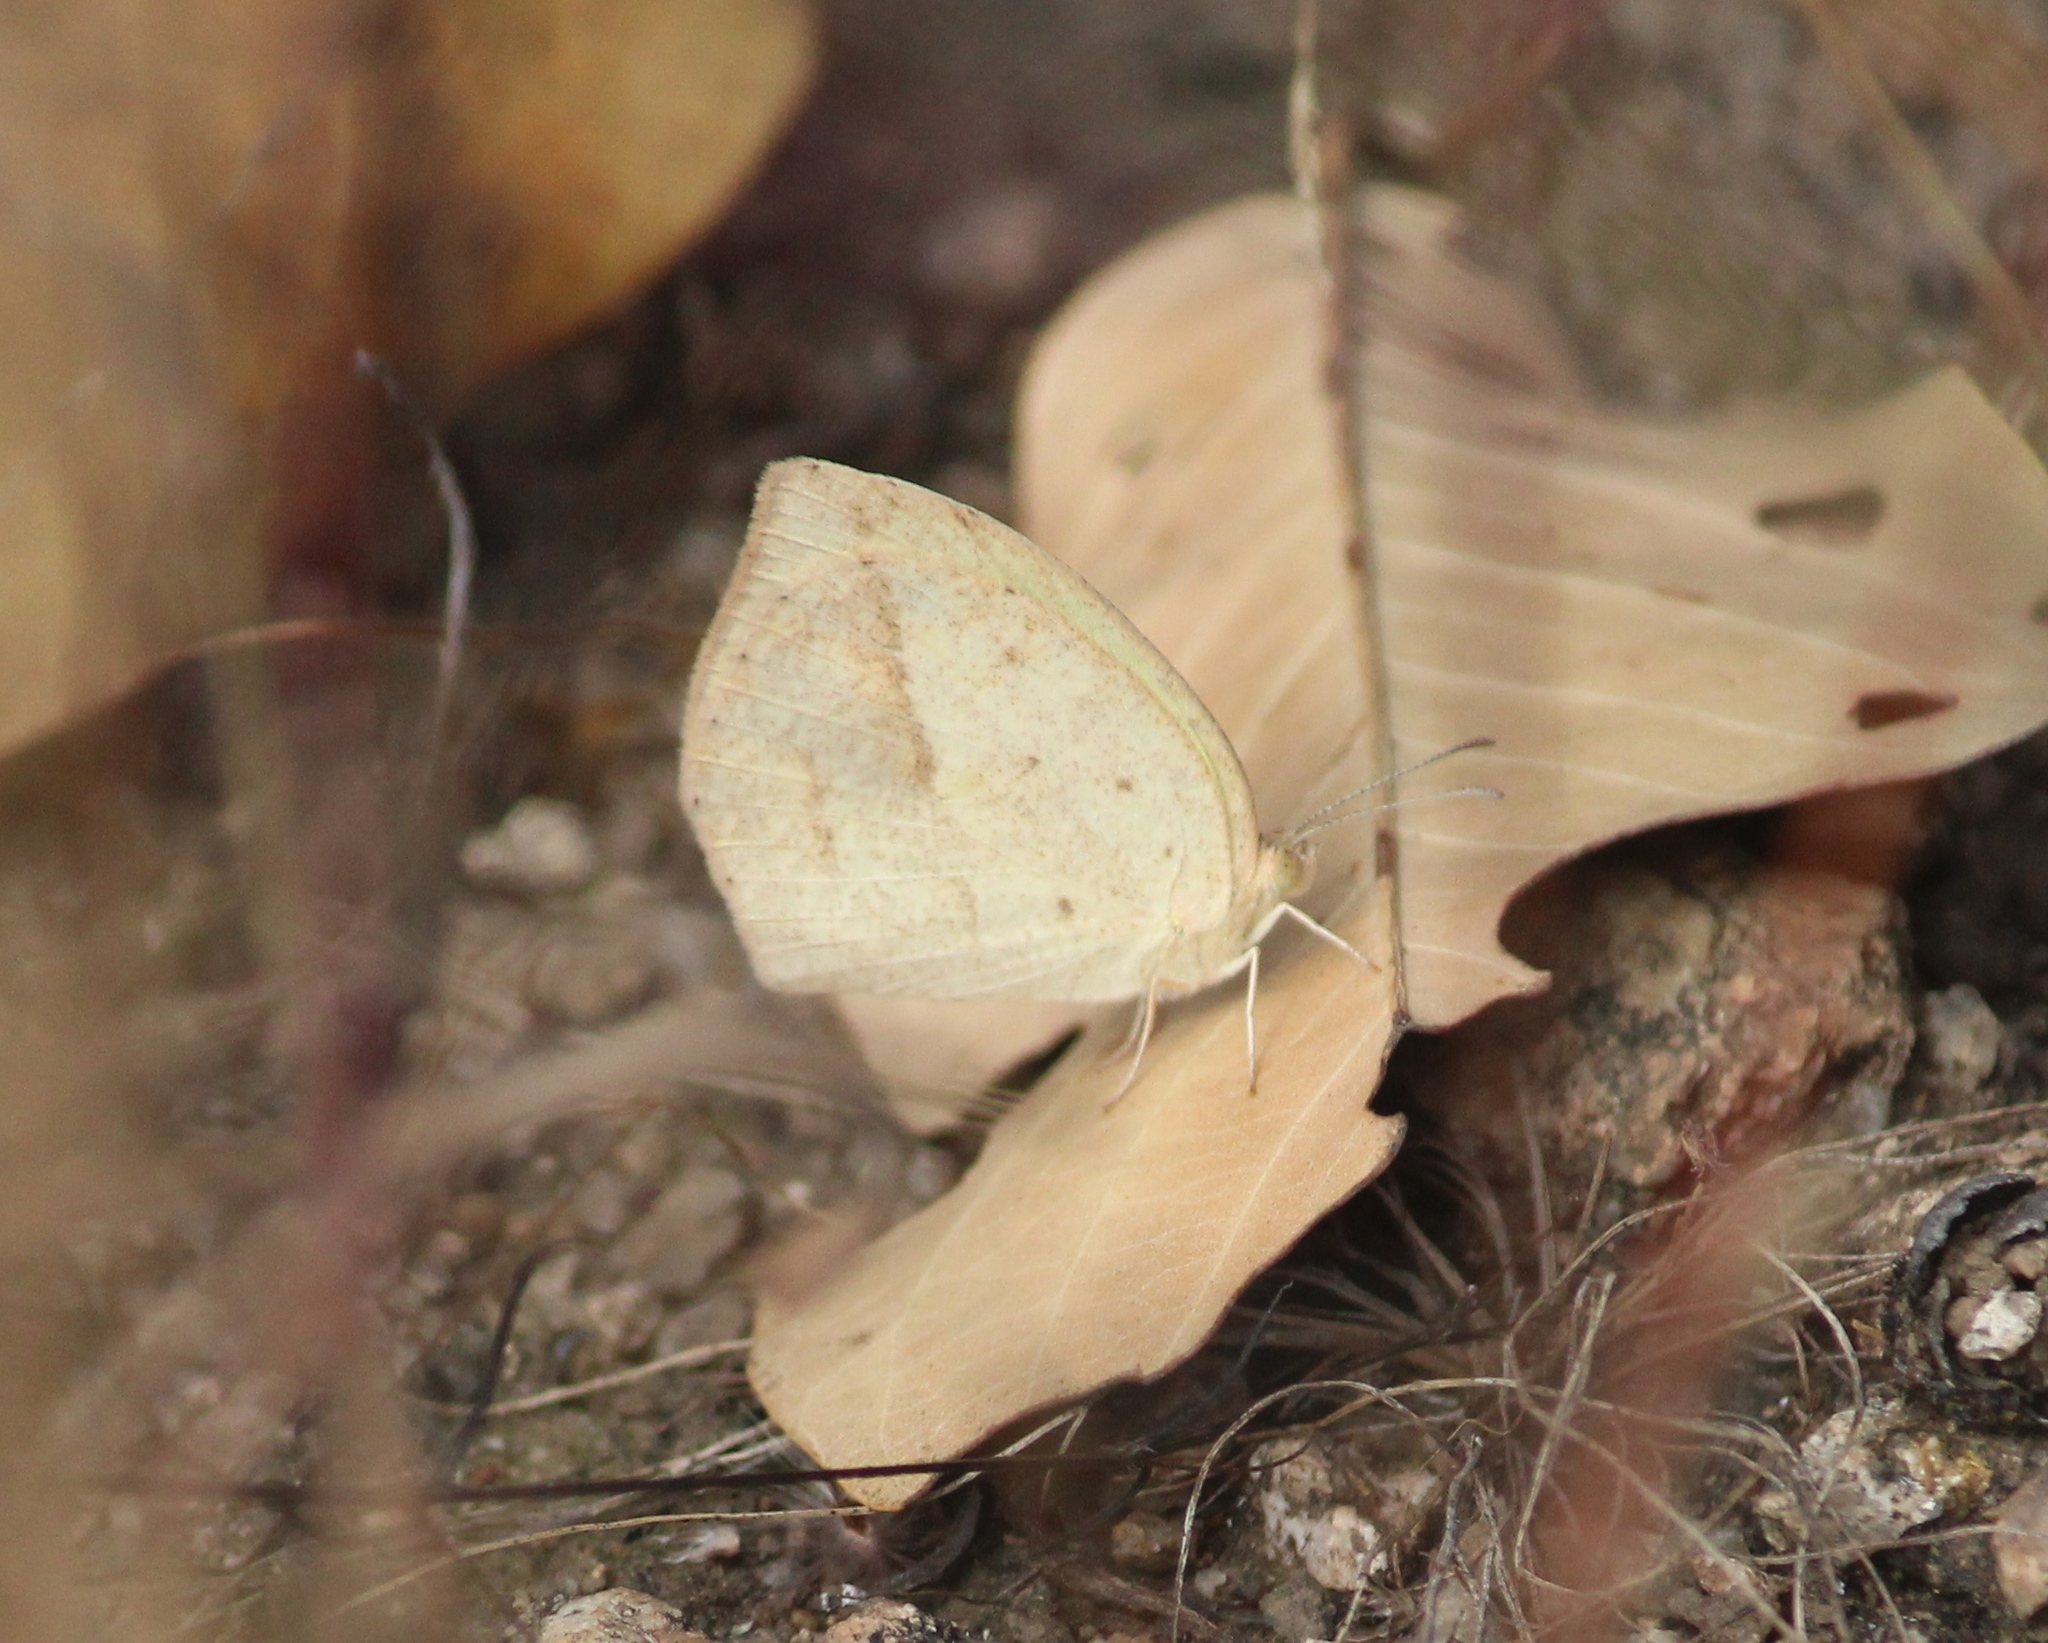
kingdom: Animalia
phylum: Arthropoda
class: Insecta
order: Lepidoptera
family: Pieridae
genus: Eurema
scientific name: Eurema laeta
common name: Spotless grass yellow
